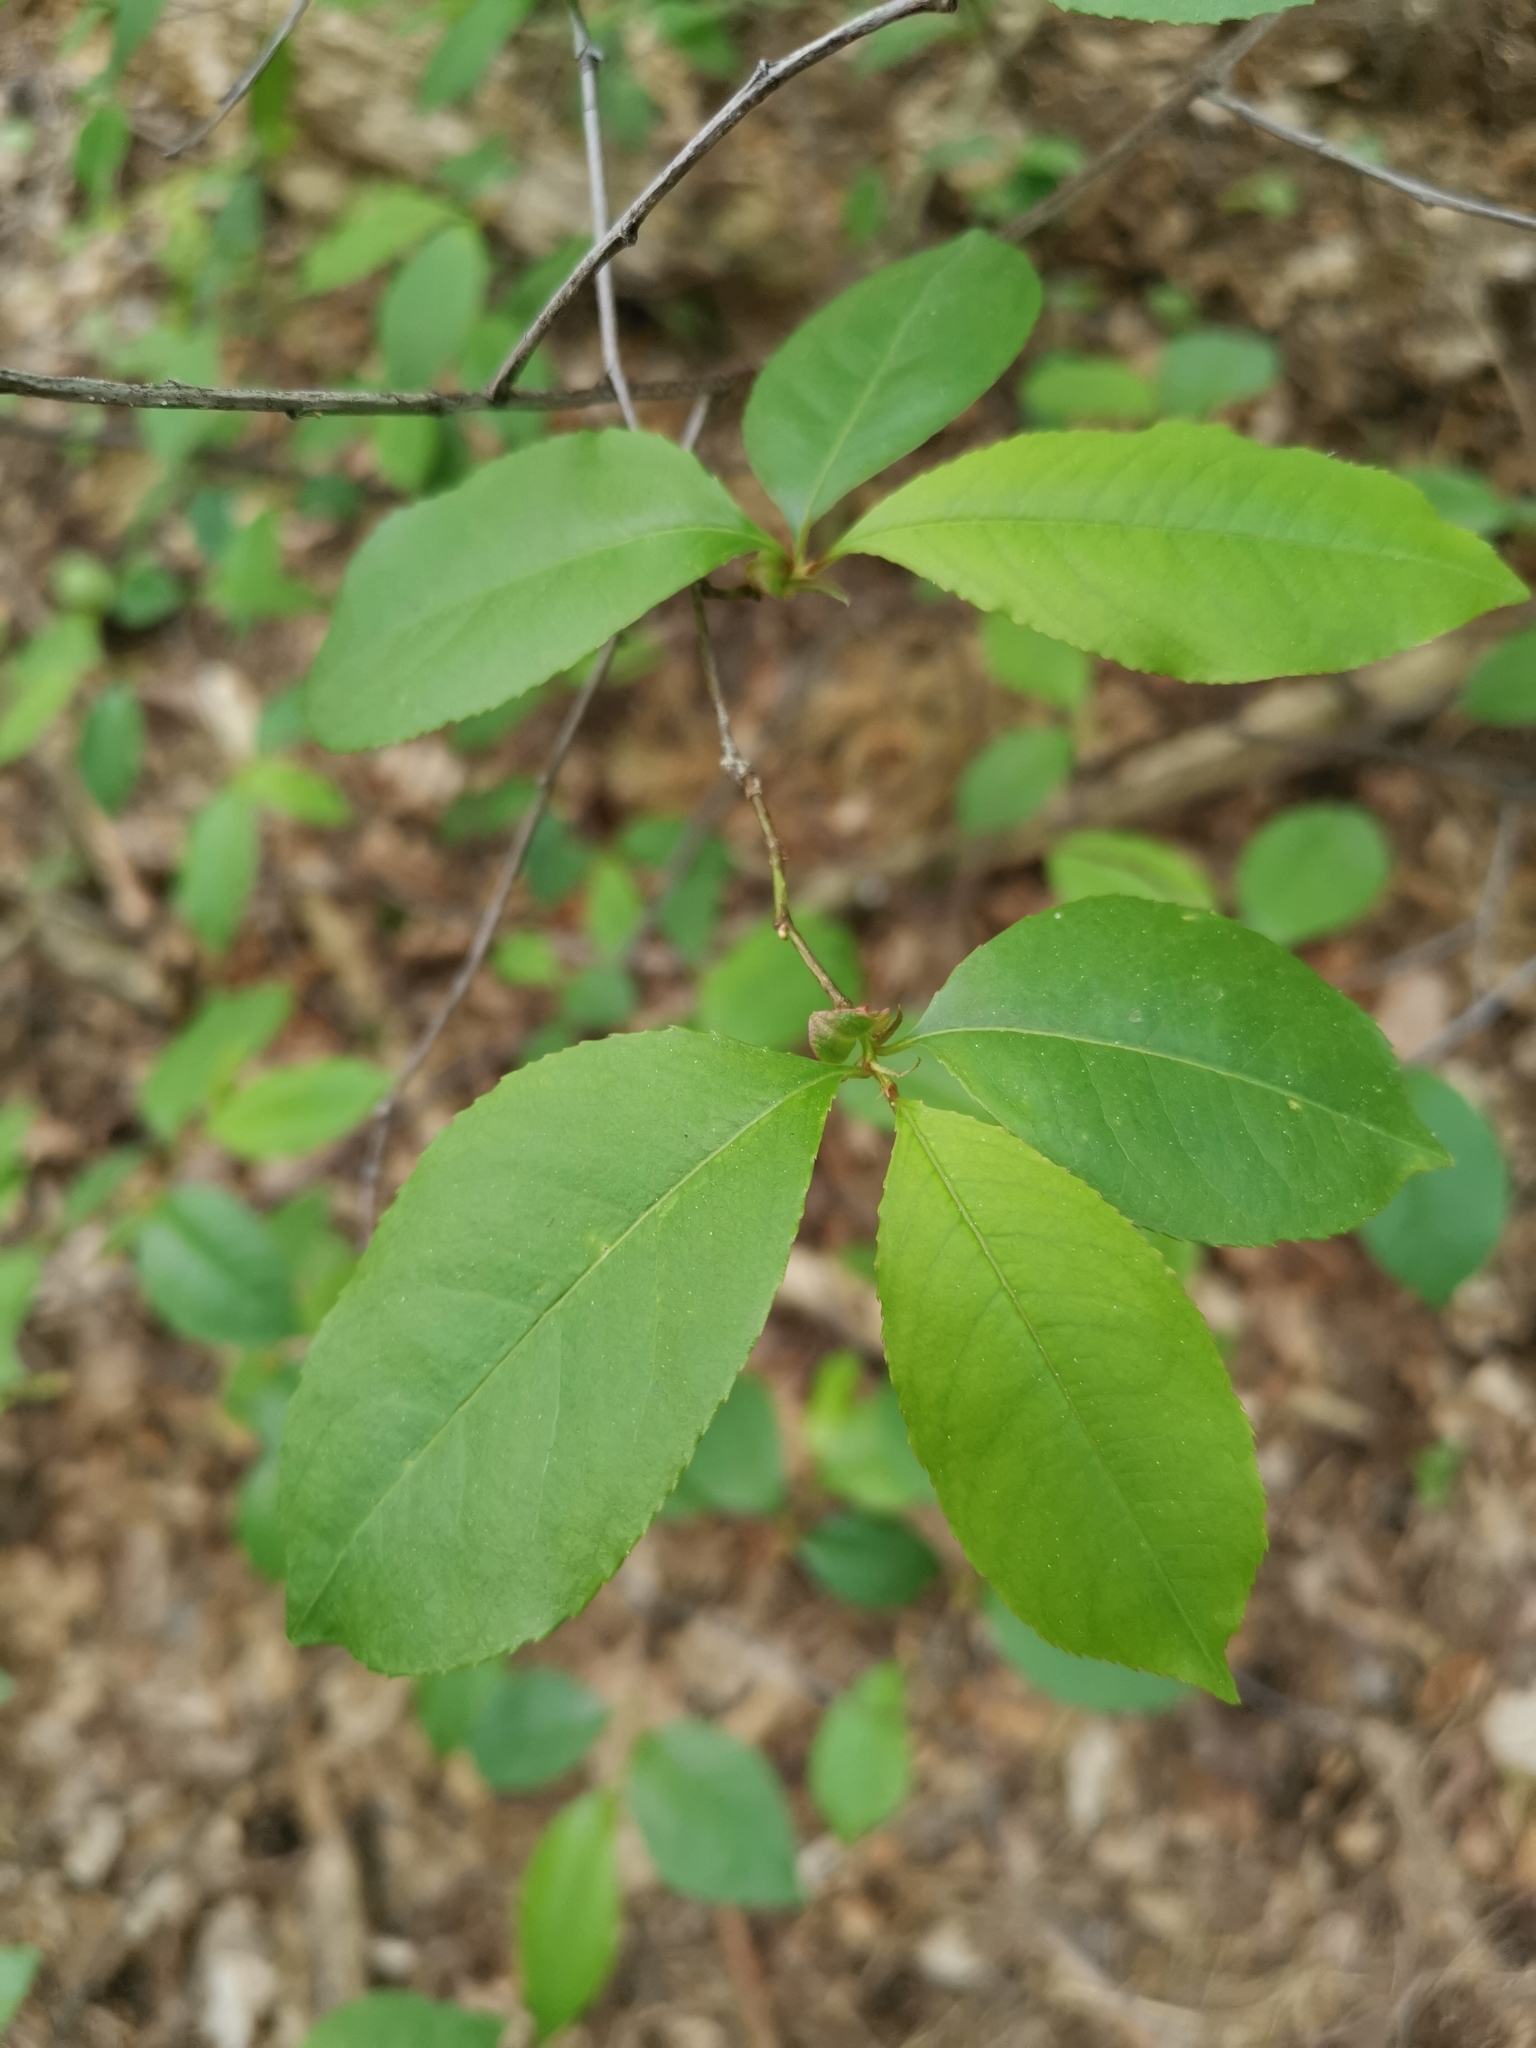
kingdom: Plantae
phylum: Tracheophyta
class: Magnoliopsida
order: Rosales
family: Rosaceae
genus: Prunus
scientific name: Prunus serotina
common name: Black cherry
